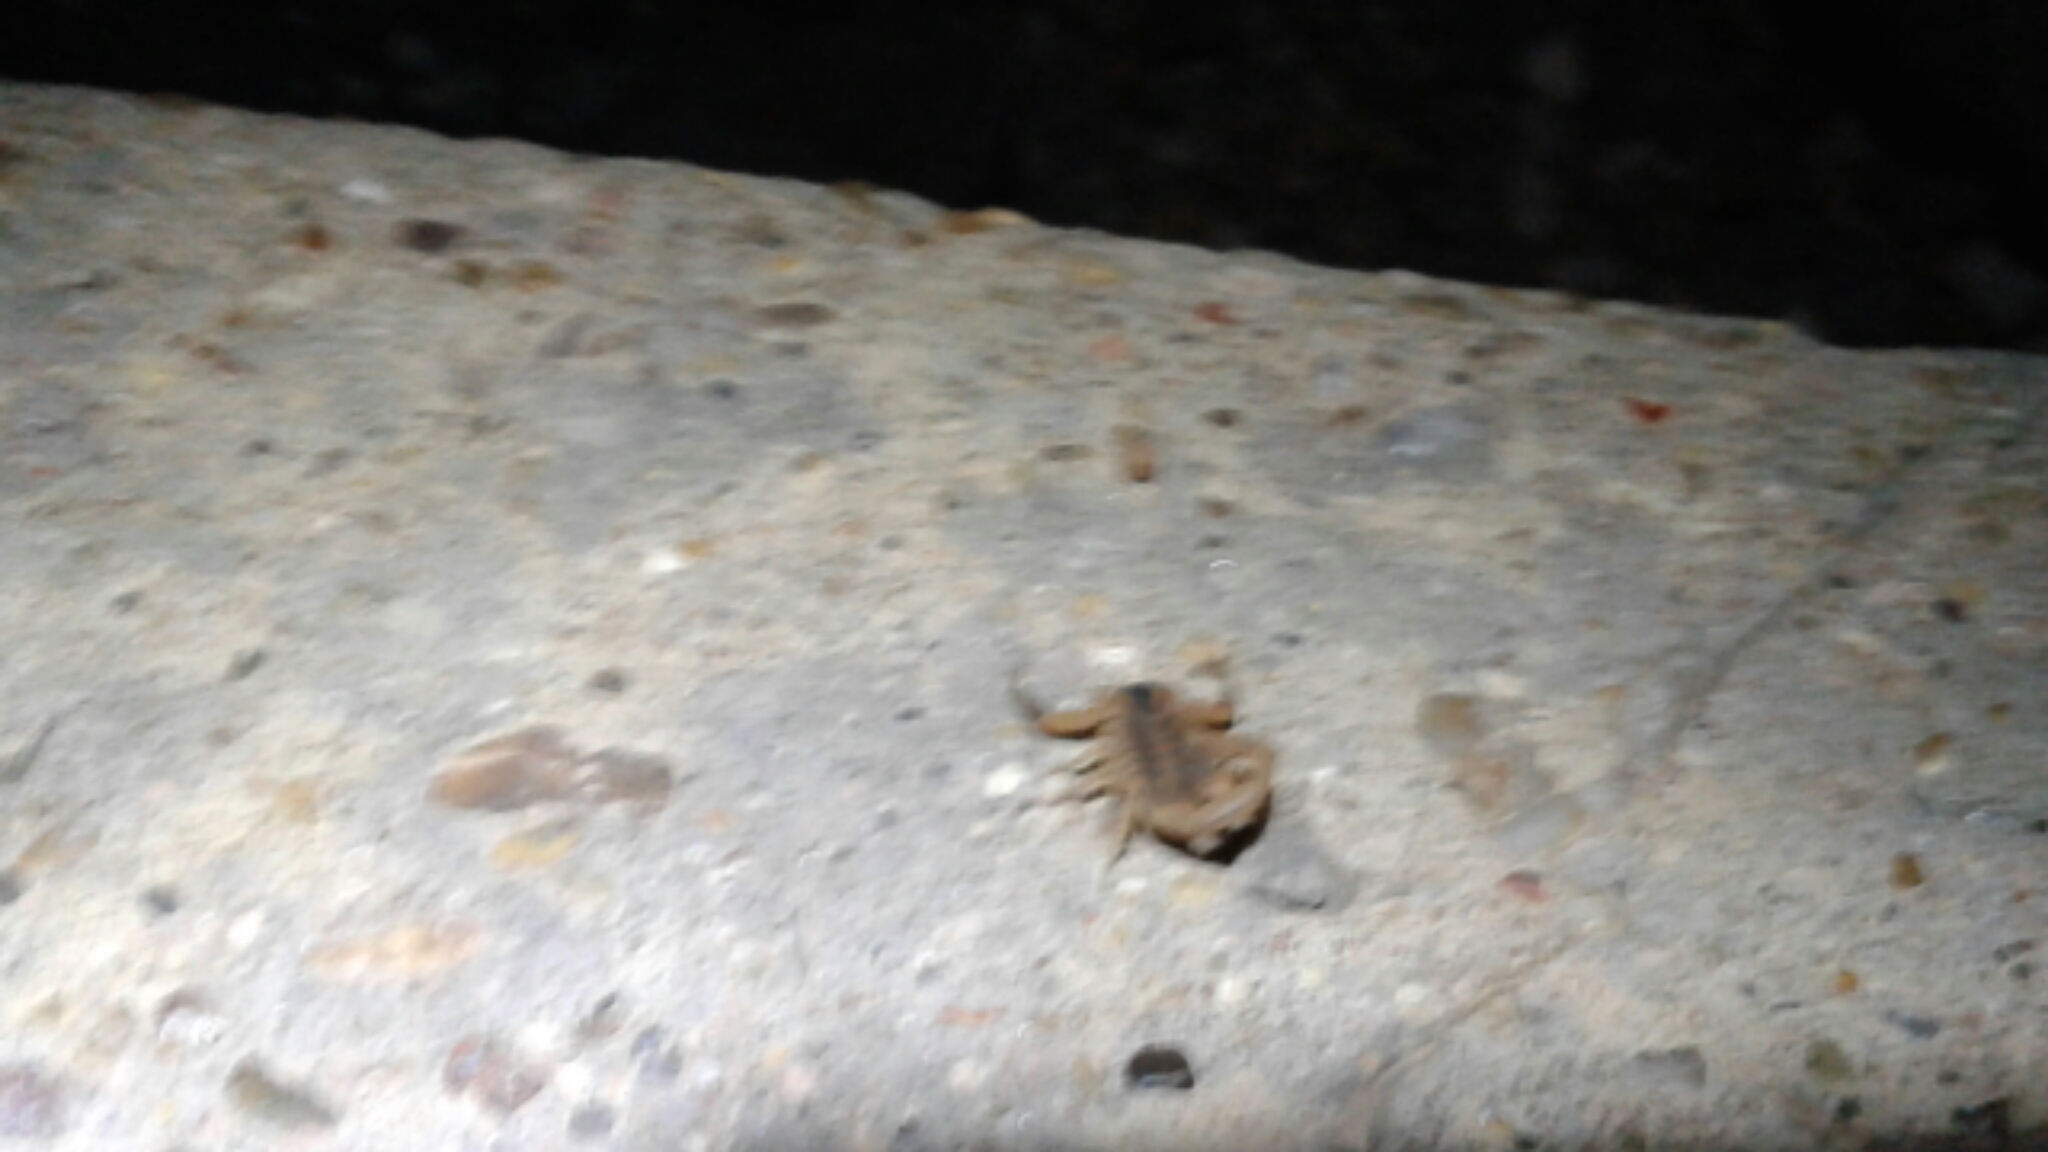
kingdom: Animalia
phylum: Arthropoda
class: Arachnida
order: Scorpiones
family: Buthidae
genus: Centruroides
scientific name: Centruroides vittatus
